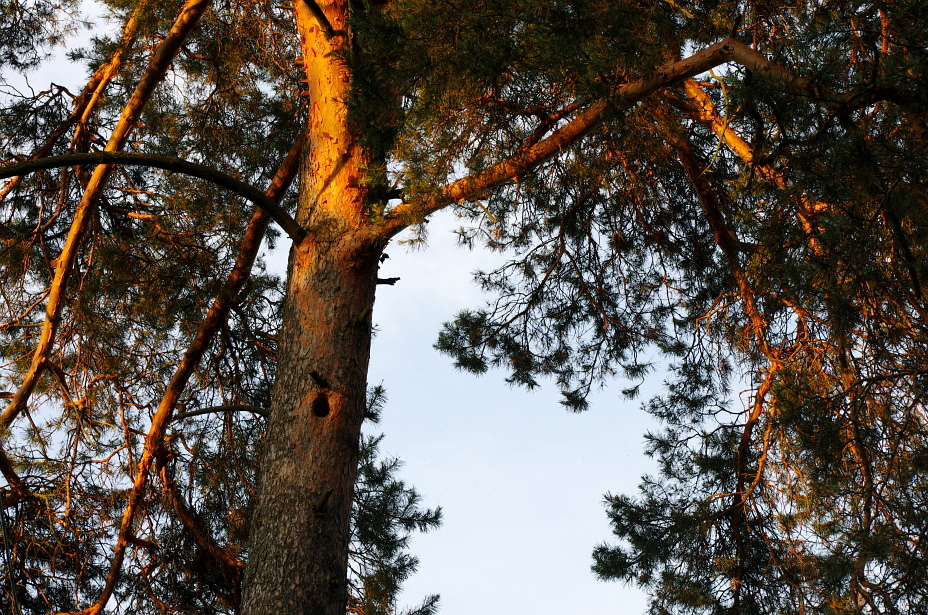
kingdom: Plantae
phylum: Tracheophyta
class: Pinopsida
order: Pinales
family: Pinaceae
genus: Pinus
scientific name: Pinus sylvestris
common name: Scots pine
